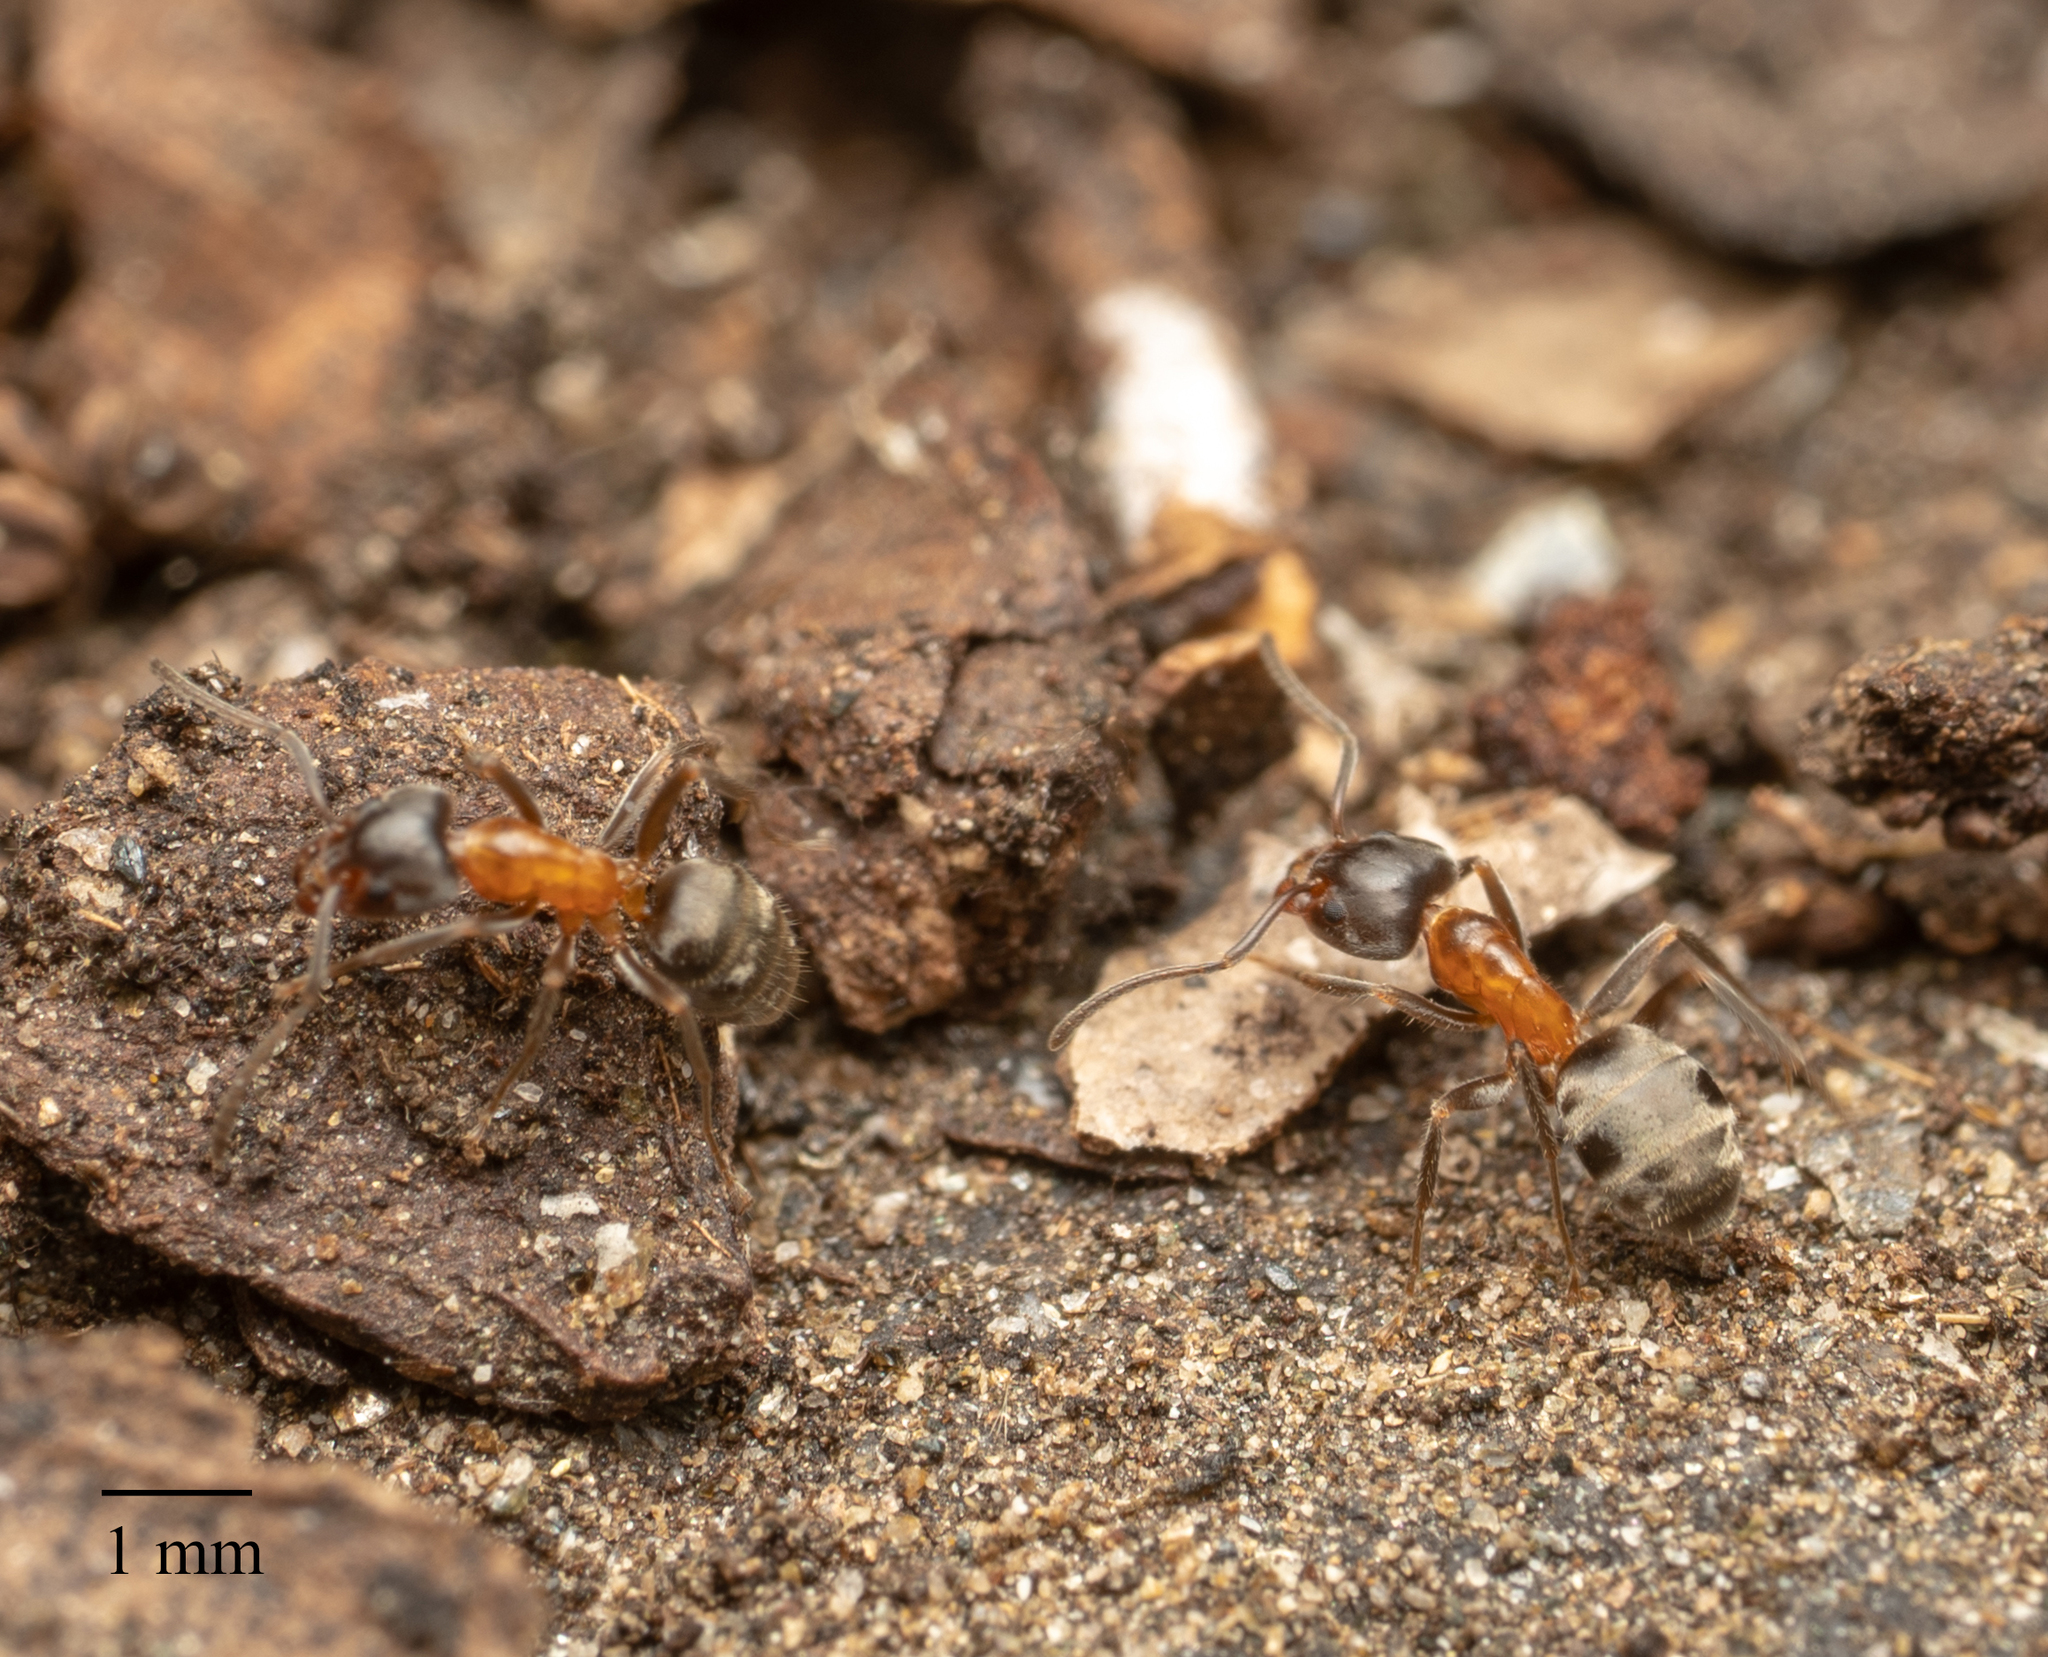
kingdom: Animalia
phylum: Arthropoda
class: Insecta
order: Hymenoptera
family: Formicidae
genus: Liometopum
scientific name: Liometopum occidentale
